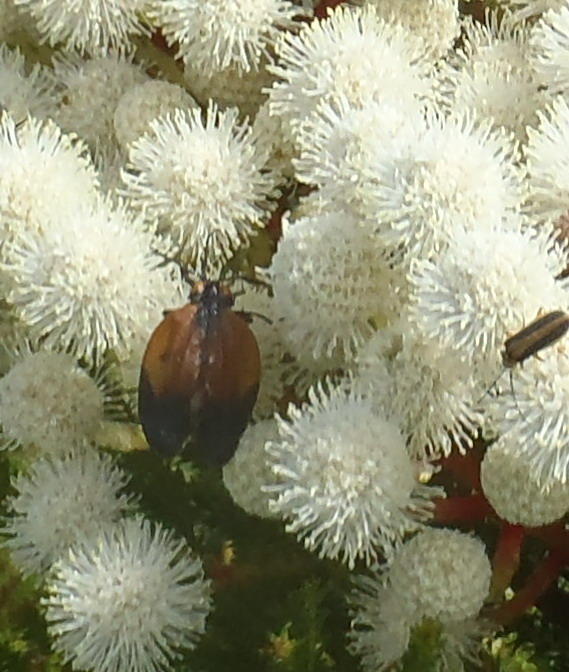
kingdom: Animalia
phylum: Arthropoda
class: Insecta
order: Coleoptera
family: Lycidae
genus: Lycus
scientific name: Lycus
